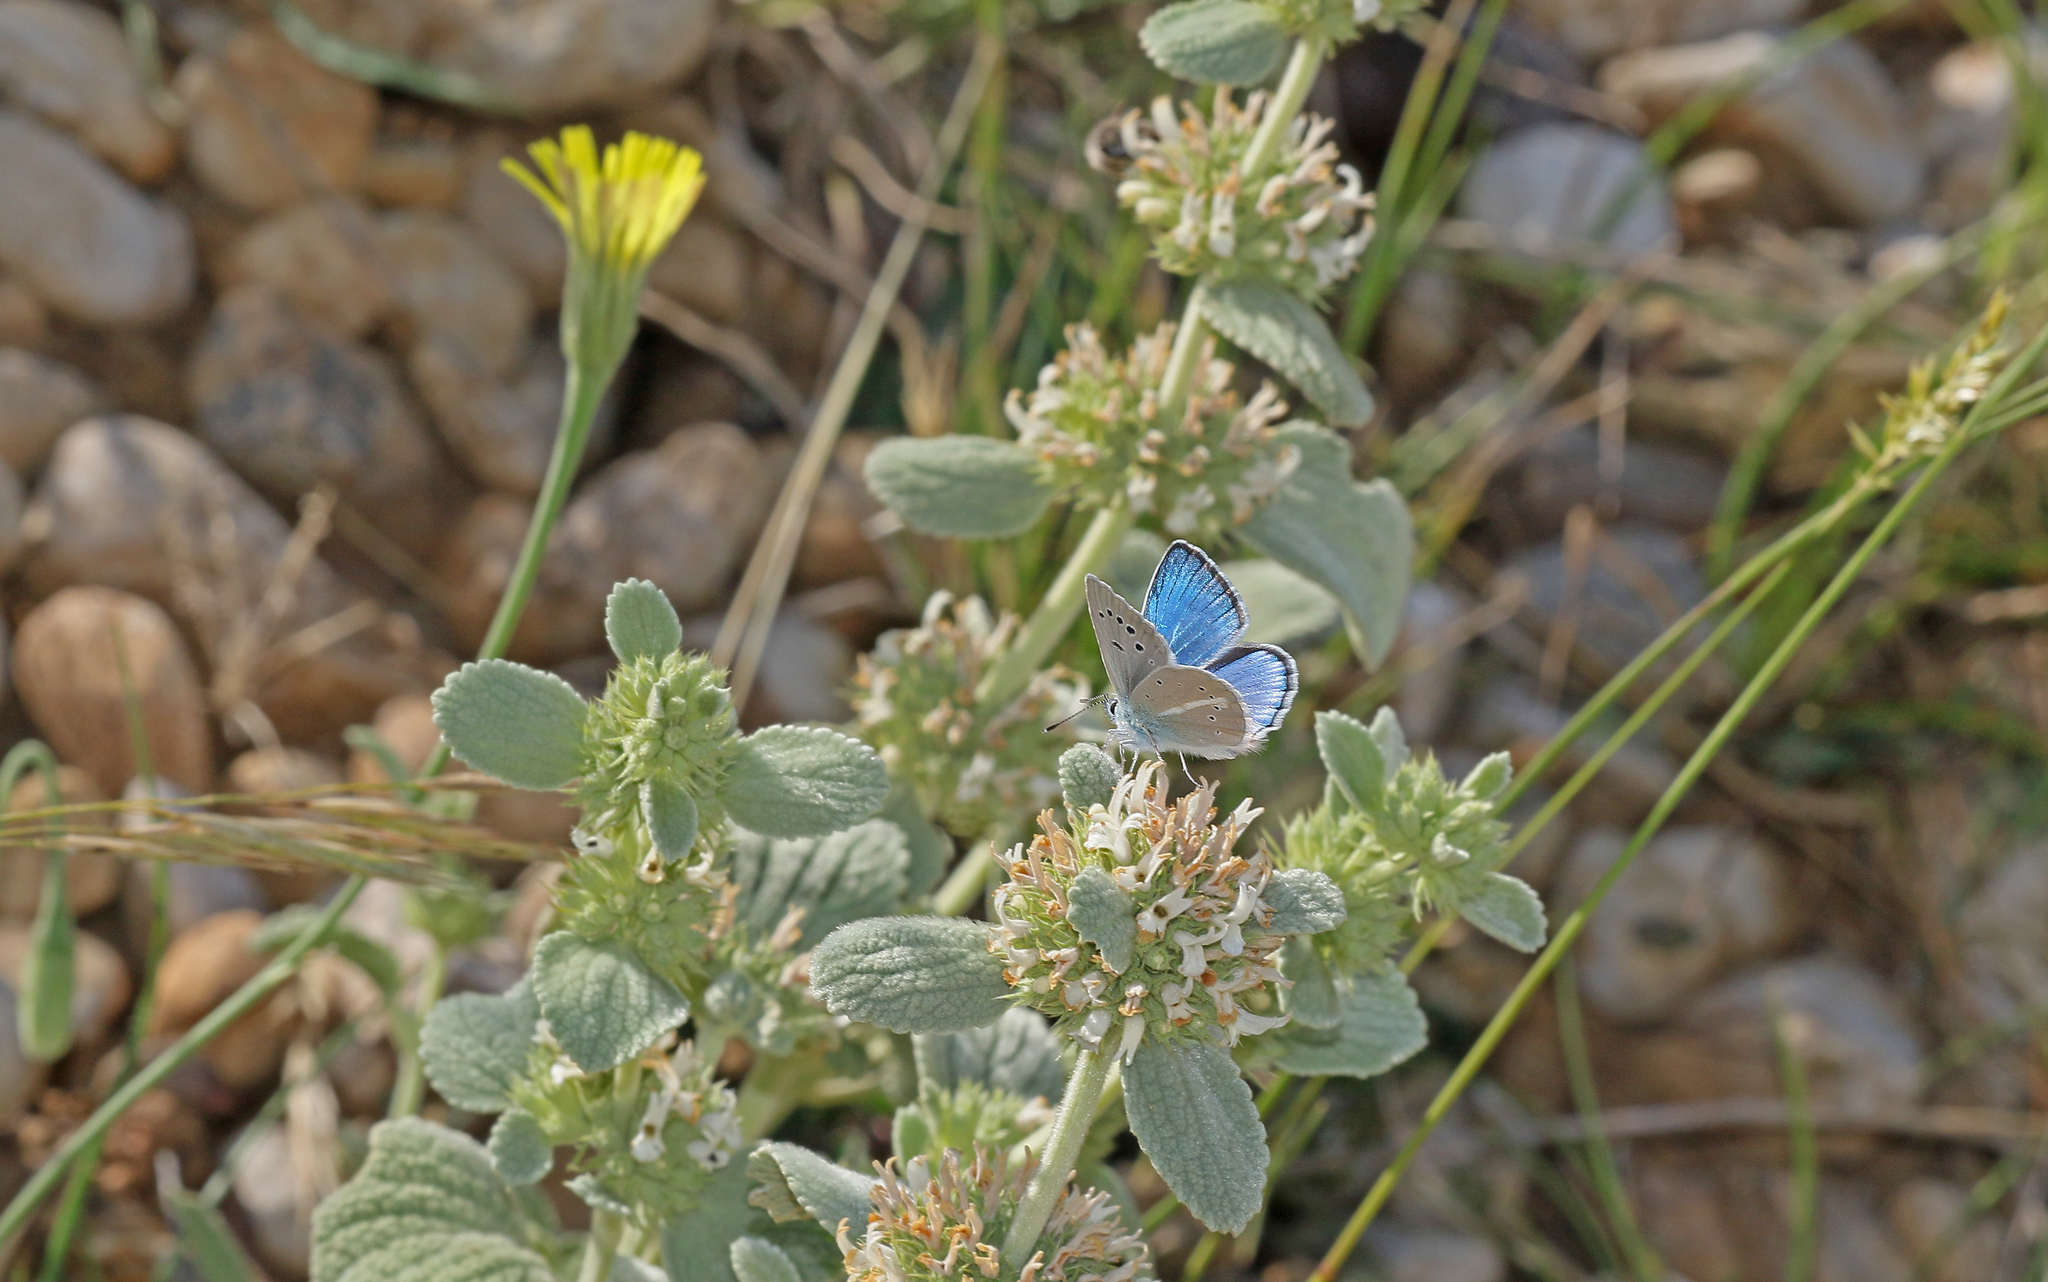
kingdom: Animalia
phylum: Arthropoda
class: Insecta
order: Lepidoptera
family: Lycaenidae
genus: Agrodiaetus
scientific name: Agrodiaetus iphigenia
